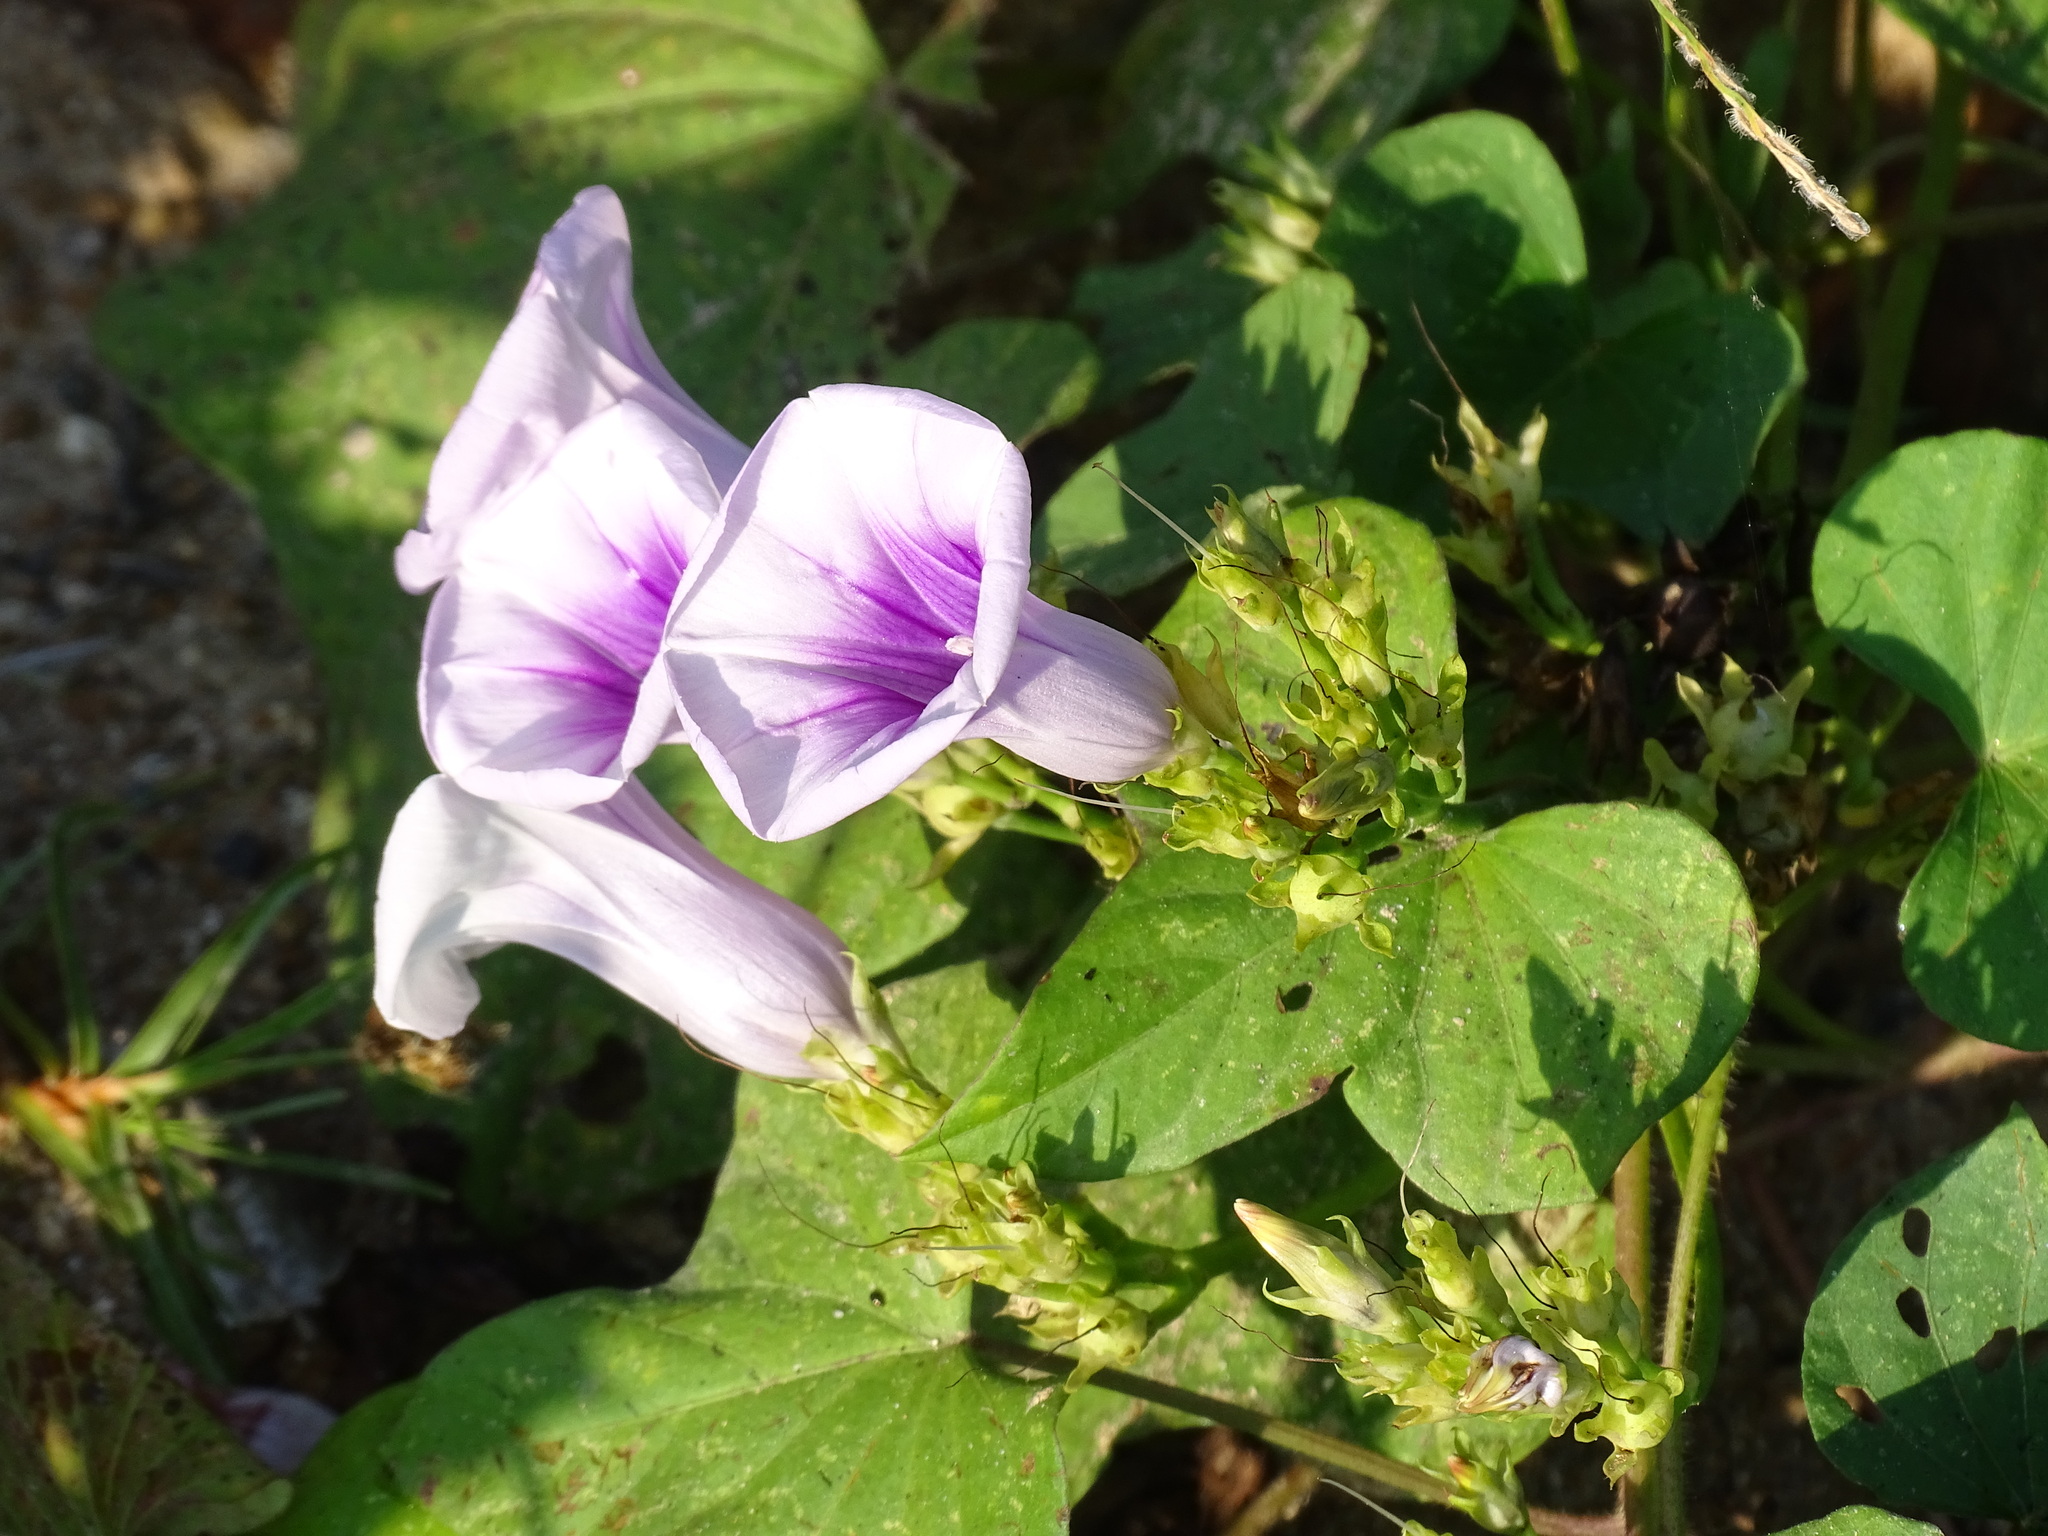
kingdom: Plantae
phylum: Tracheophyta
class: Magnoliopsida
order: Solanales
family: Convolvulaceae
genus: Ipomoea
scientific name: Ipomoea batatas
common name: Sweet-potato
